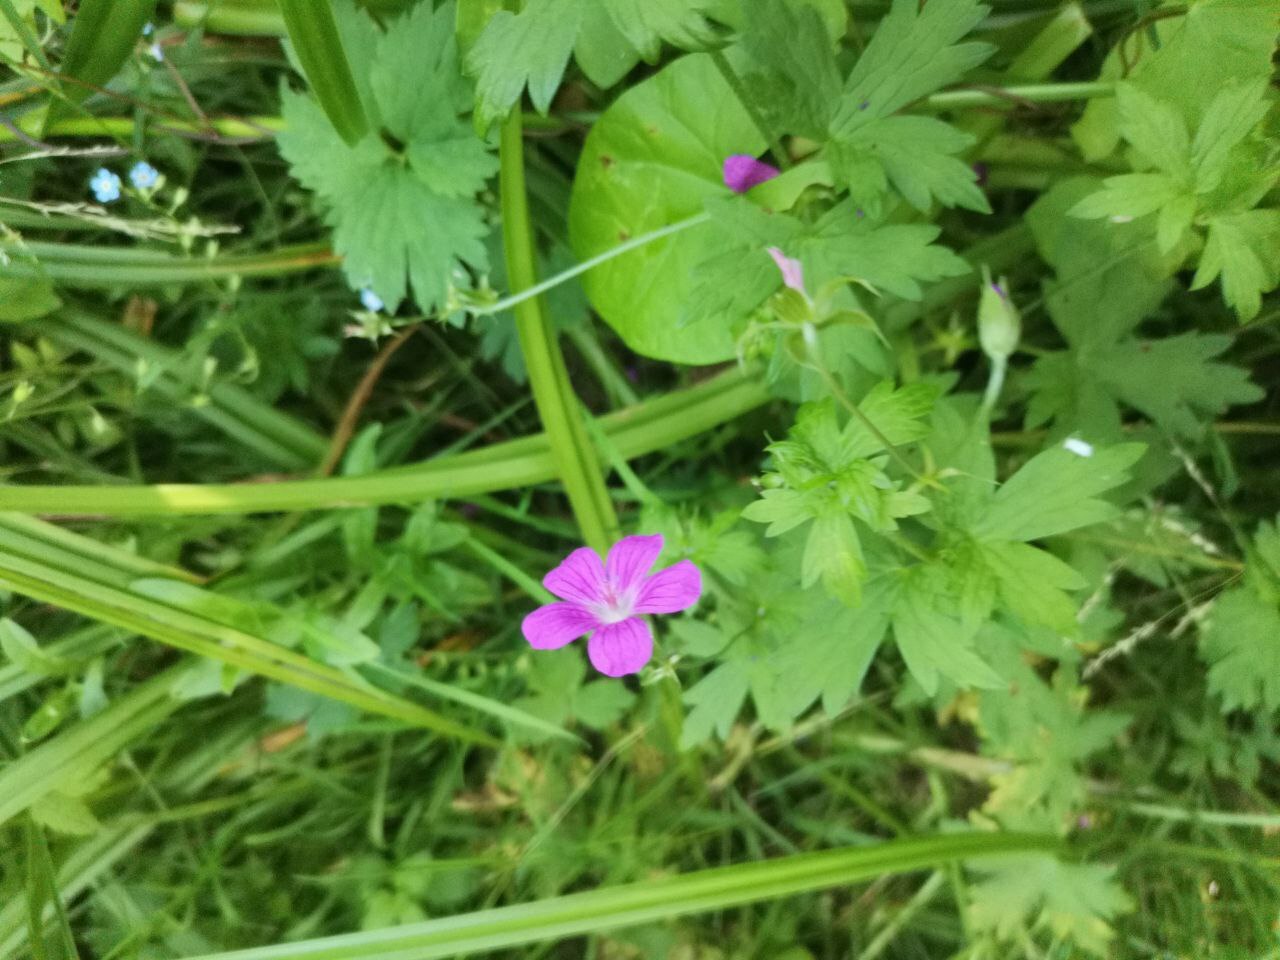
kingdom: Plantae
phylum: Tracheophyta
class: Magnoliopsida
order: Geraniales
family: Geraniaceae
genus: Geranium
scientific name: Geranium palustre
